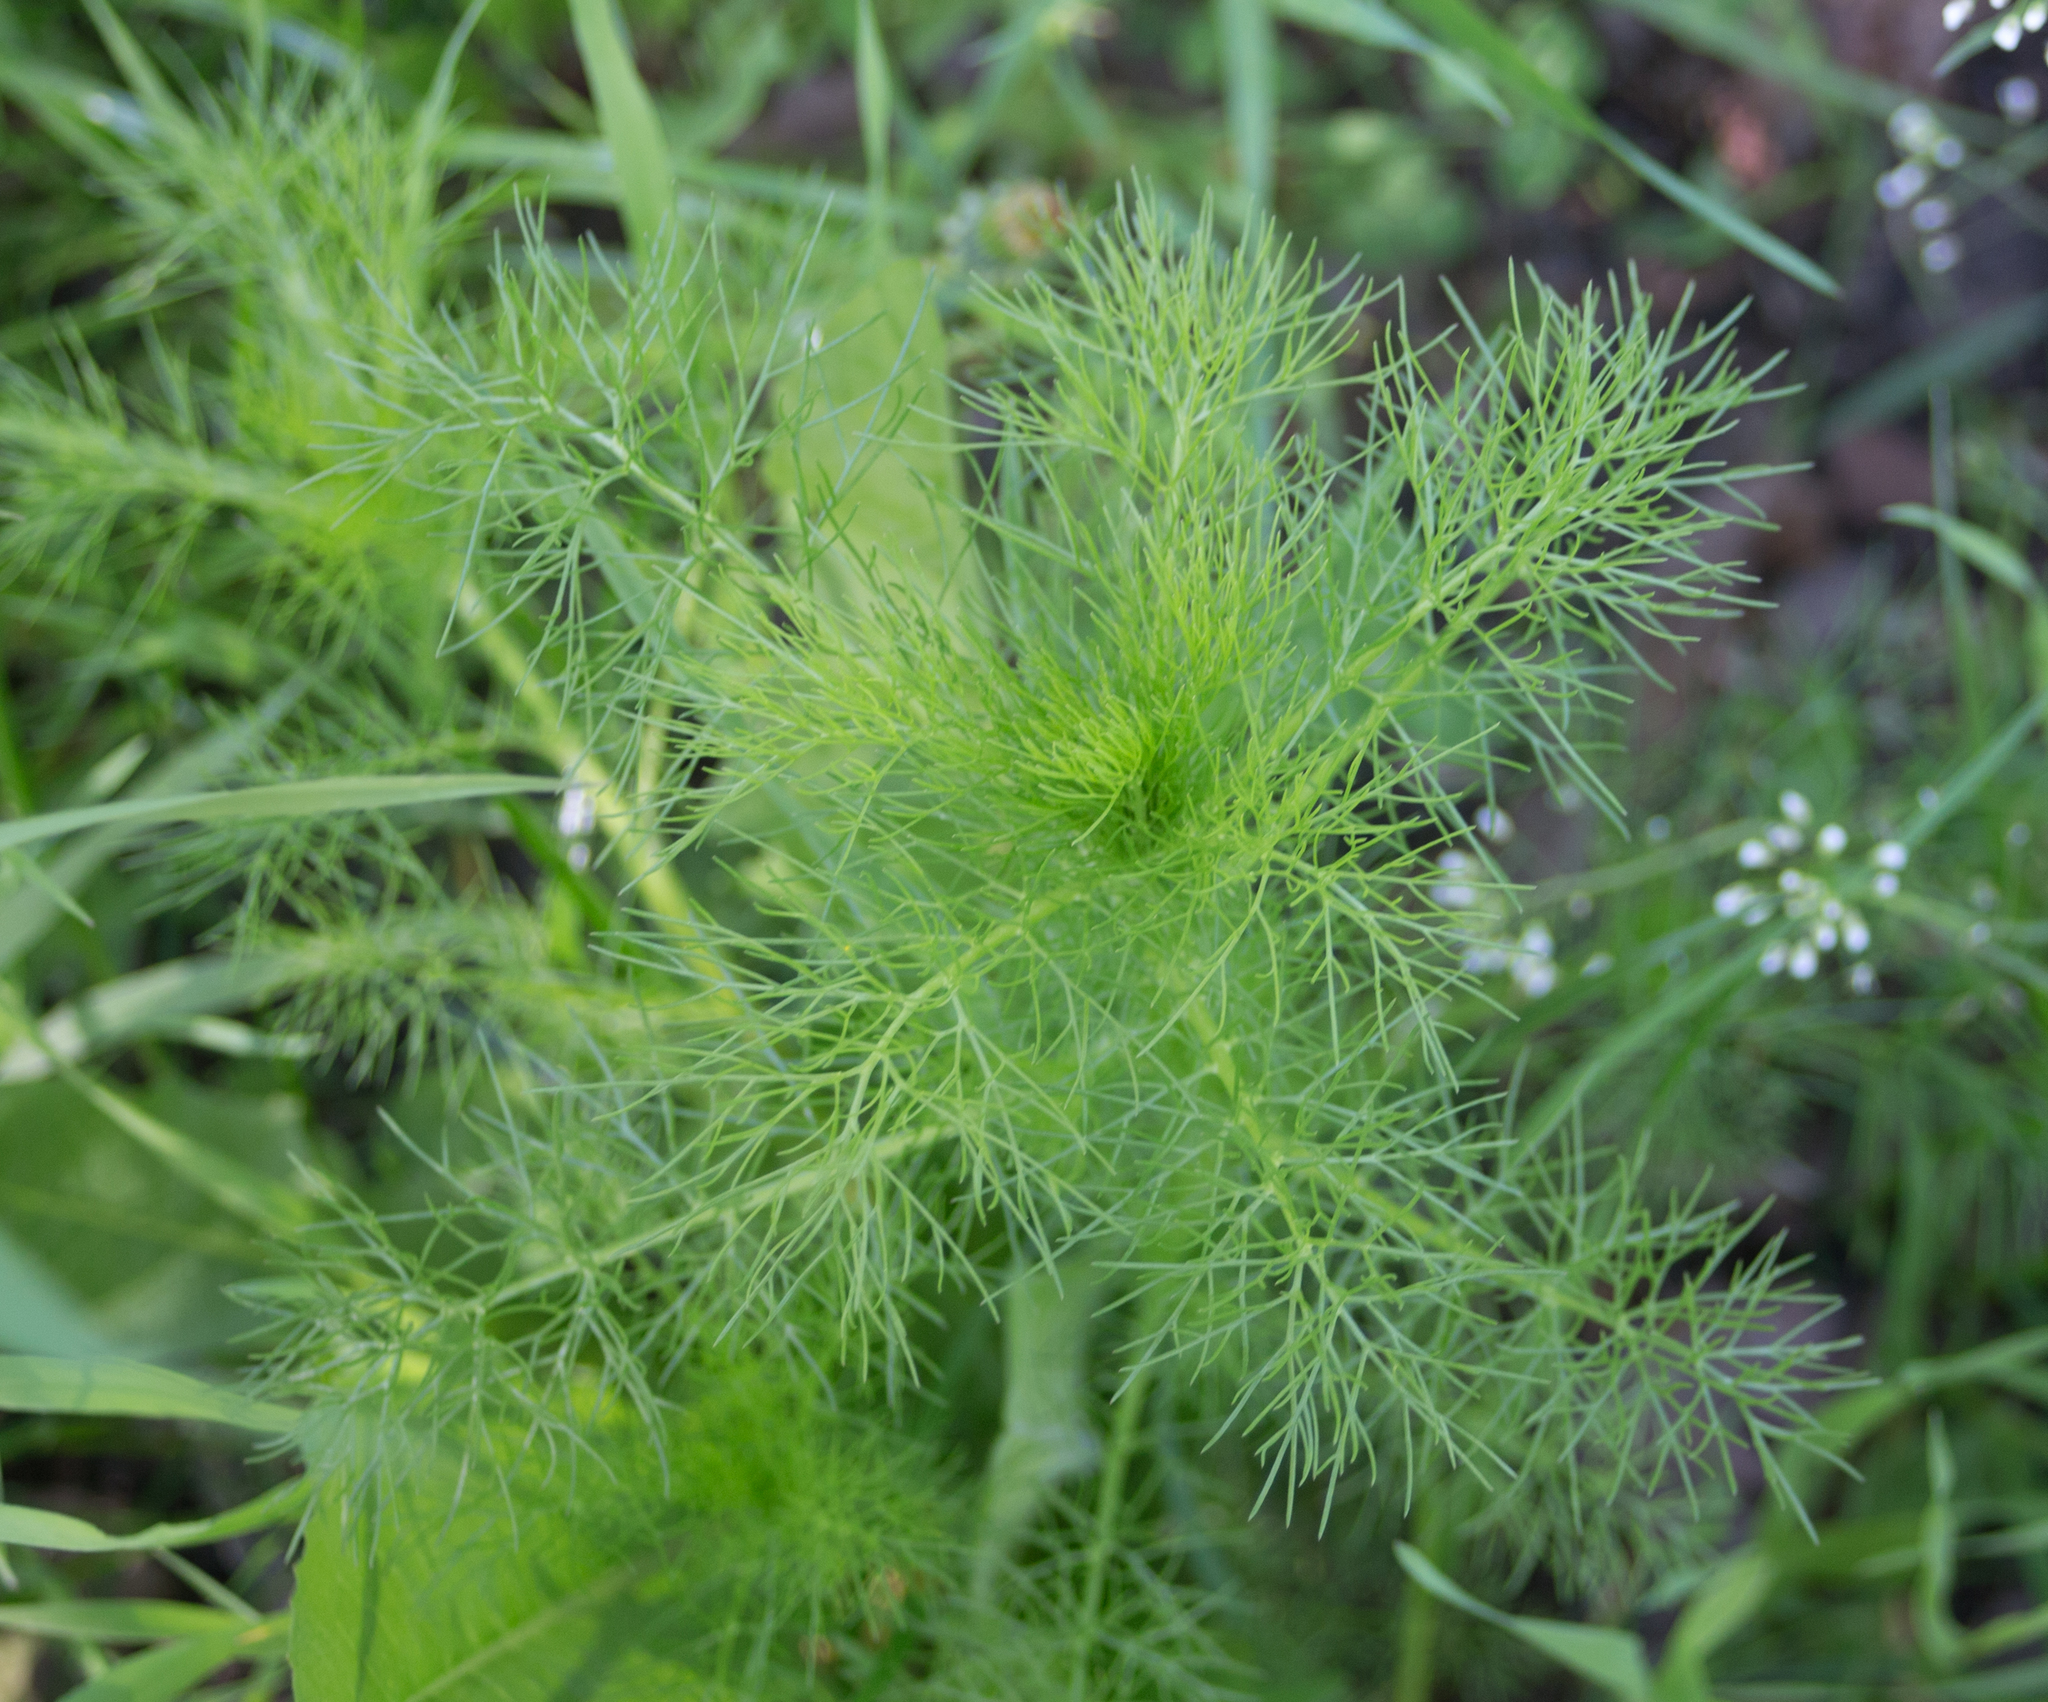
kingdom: Plantae
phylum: Tracheophyta
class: Magnoliopsida
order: Asterales
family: Asteraceae
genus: Tripleurospermum
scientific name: Tripleurospermum inodorum
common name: Scentless mayweed
